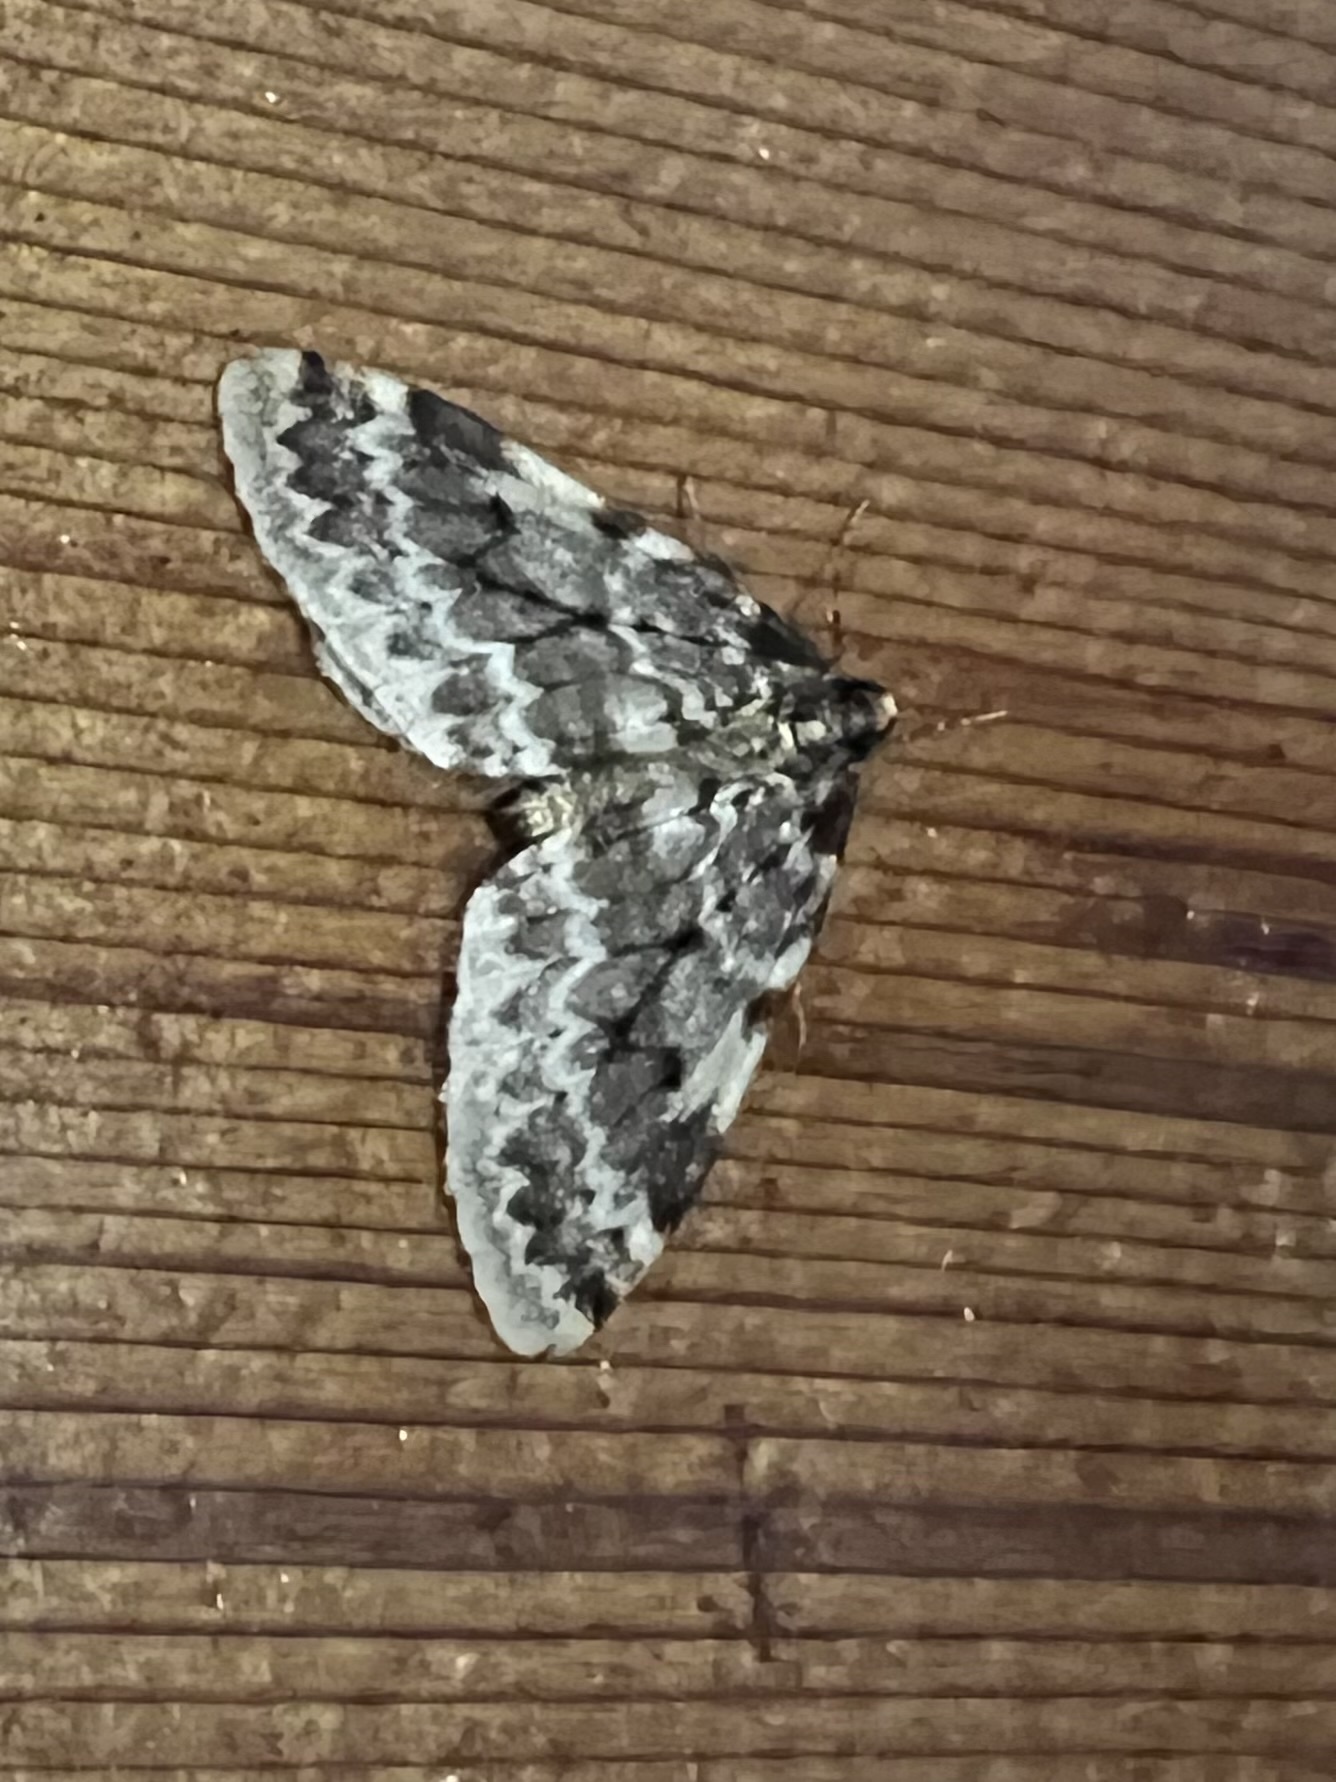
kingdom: Animalia
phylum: Arthropoda
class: Insecta
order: Lepidoptera
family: Geometridae
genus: Malacodea
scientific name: Malacodea pulchraria
